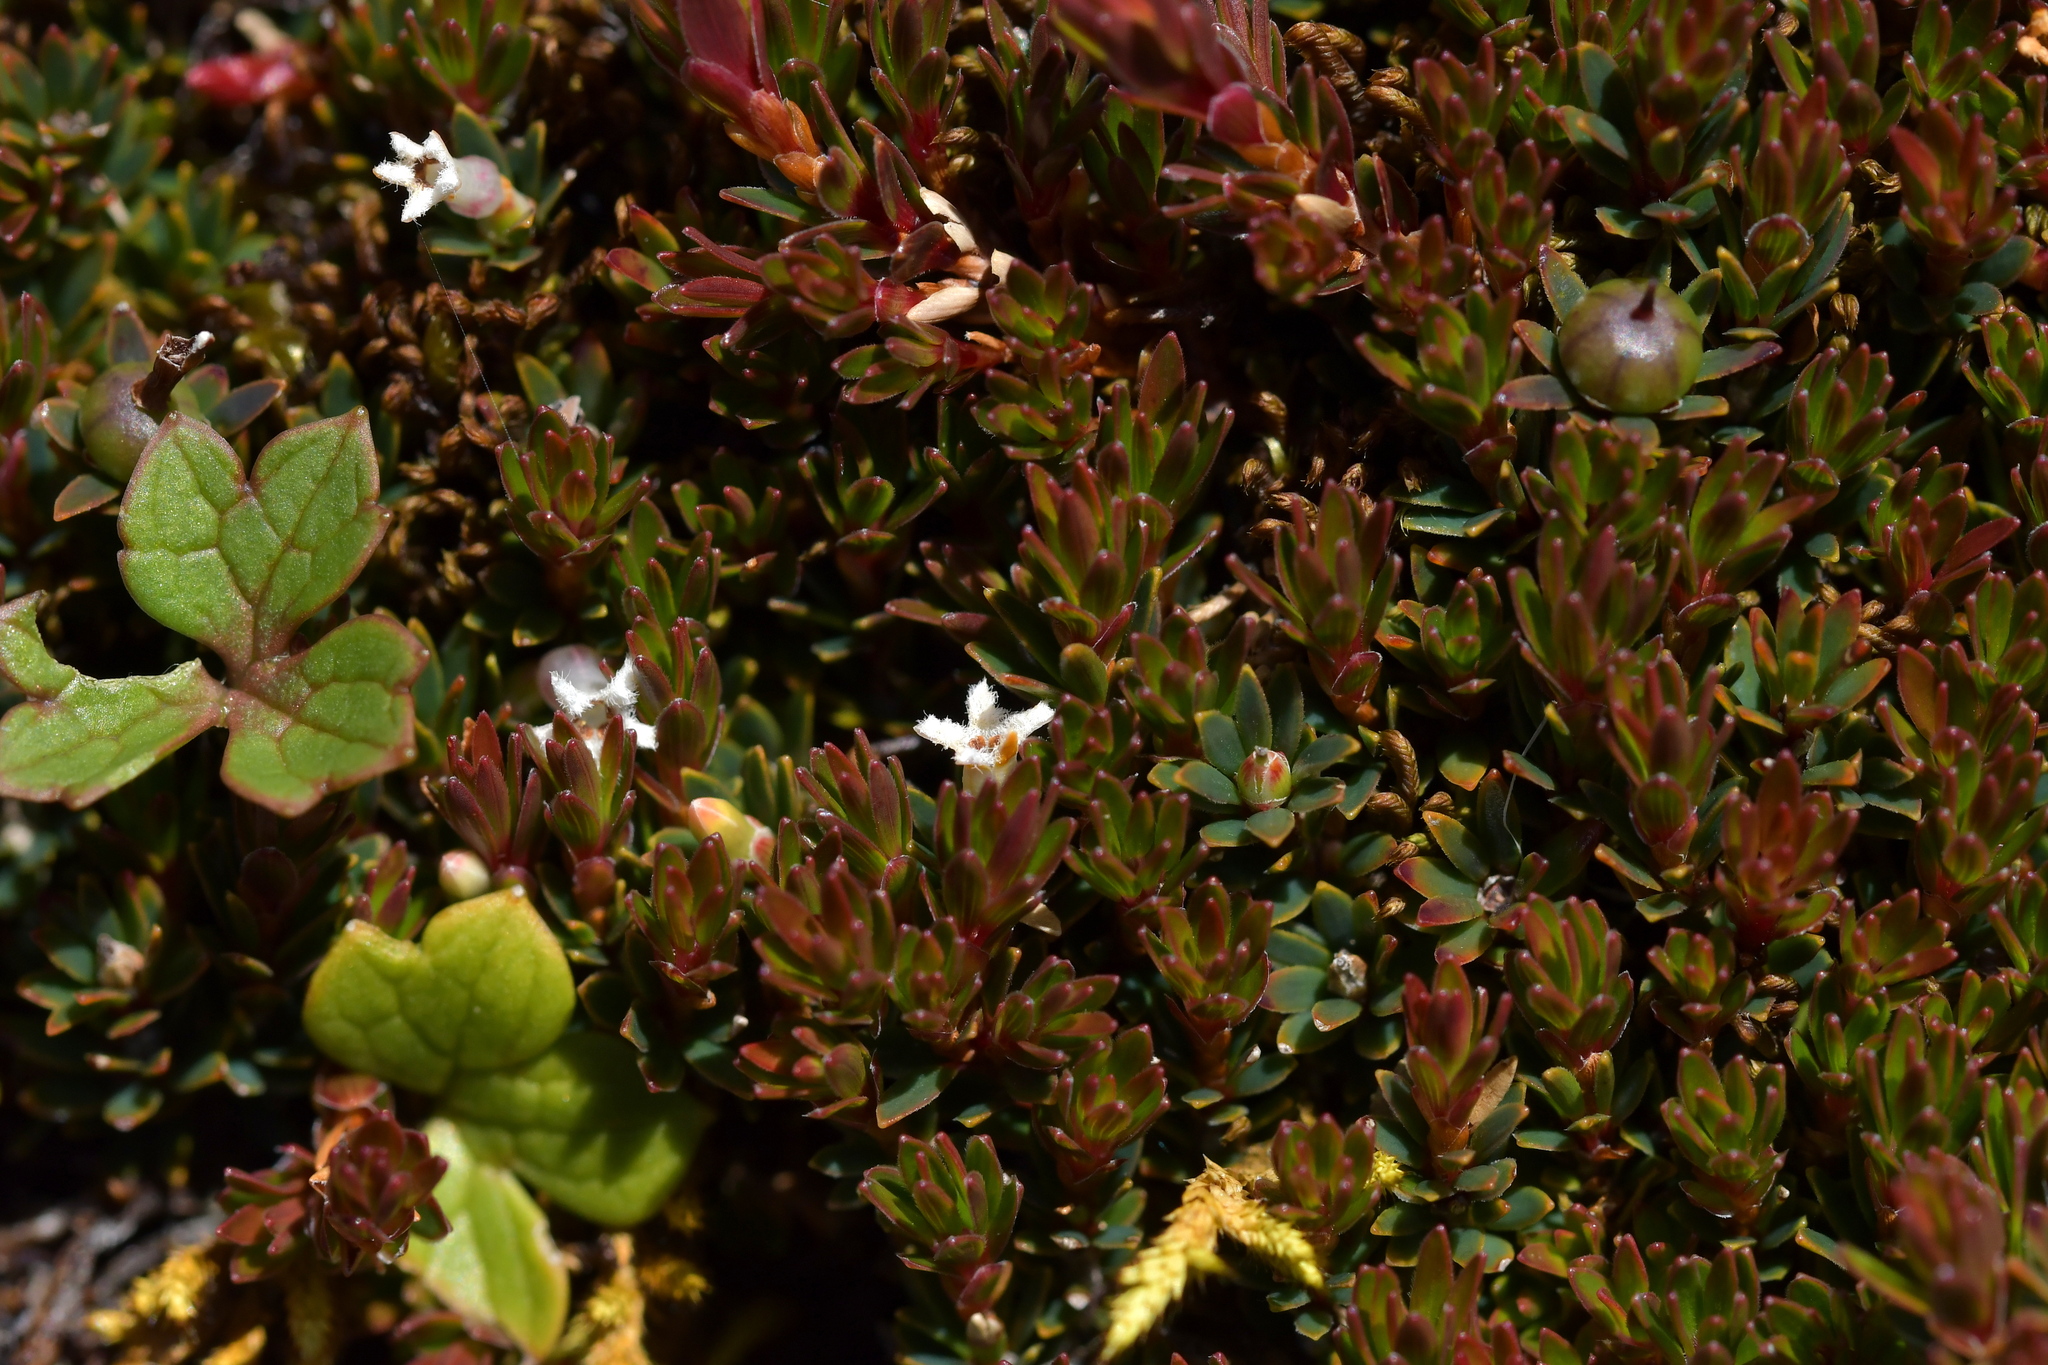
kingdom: Plantae
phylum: Tracheophyta
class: Magnoliopsida
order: Ericales
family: Ericaceae
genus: Pentachondra
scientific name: Pentachondra pumila
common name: Carpet-heath
